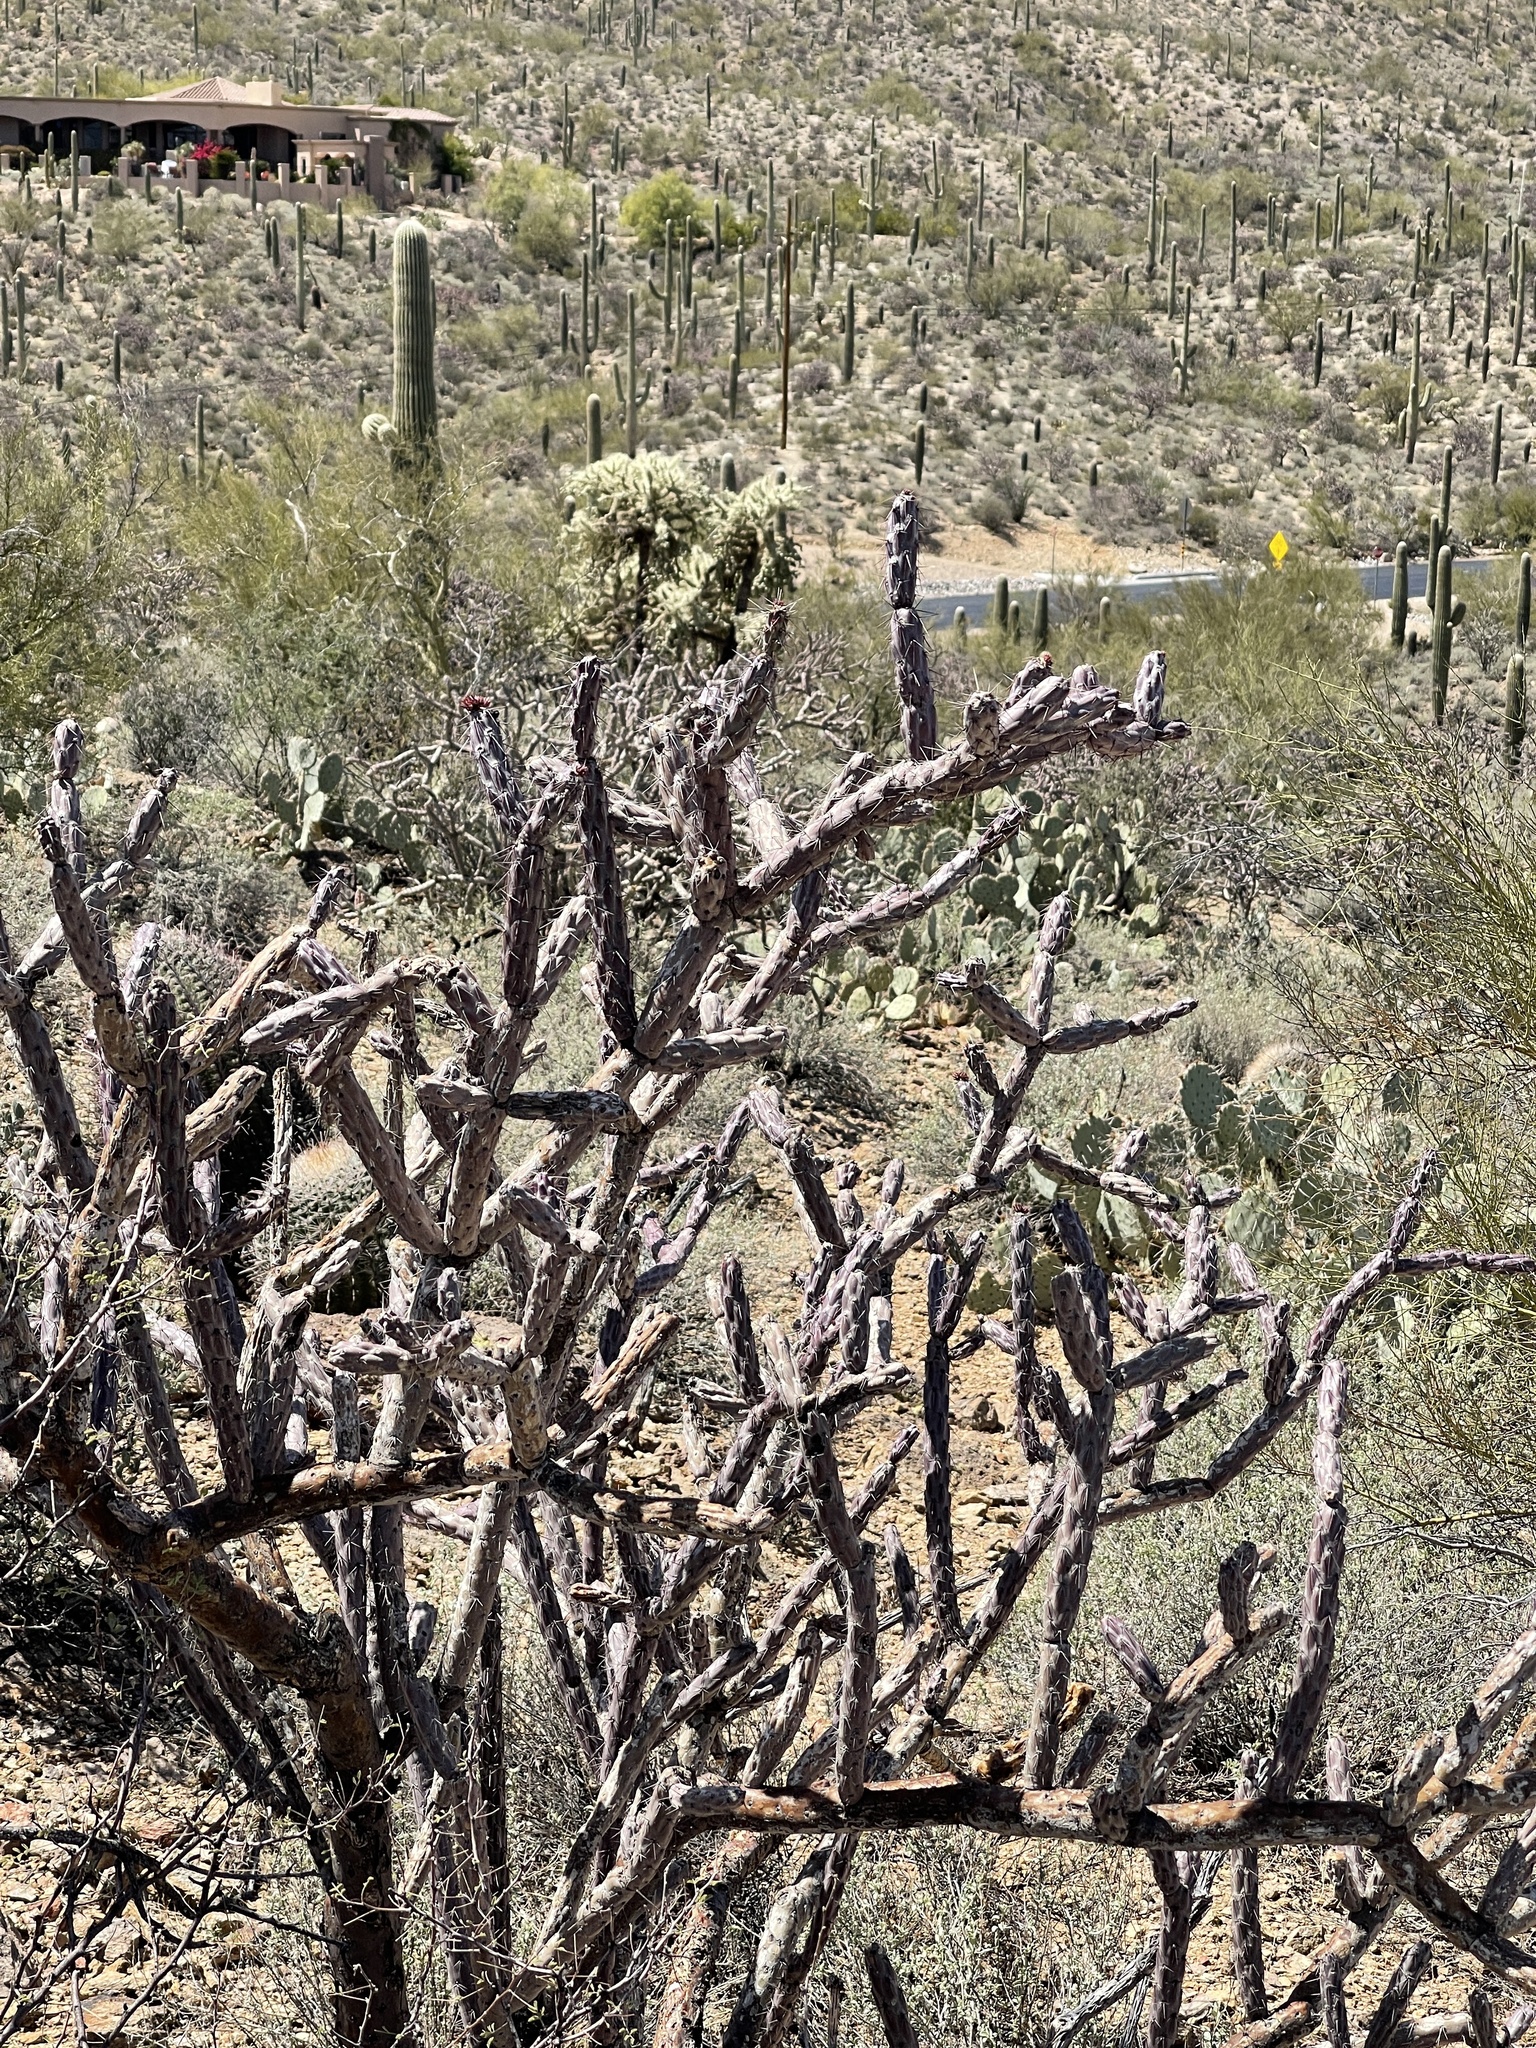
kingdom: Plantae
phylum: Tracheophyta
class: Magnoliopsida
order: Caryophyllales
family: Cactaceae
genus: Cylindropuntia
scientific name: Cylindropuntia thurberi
